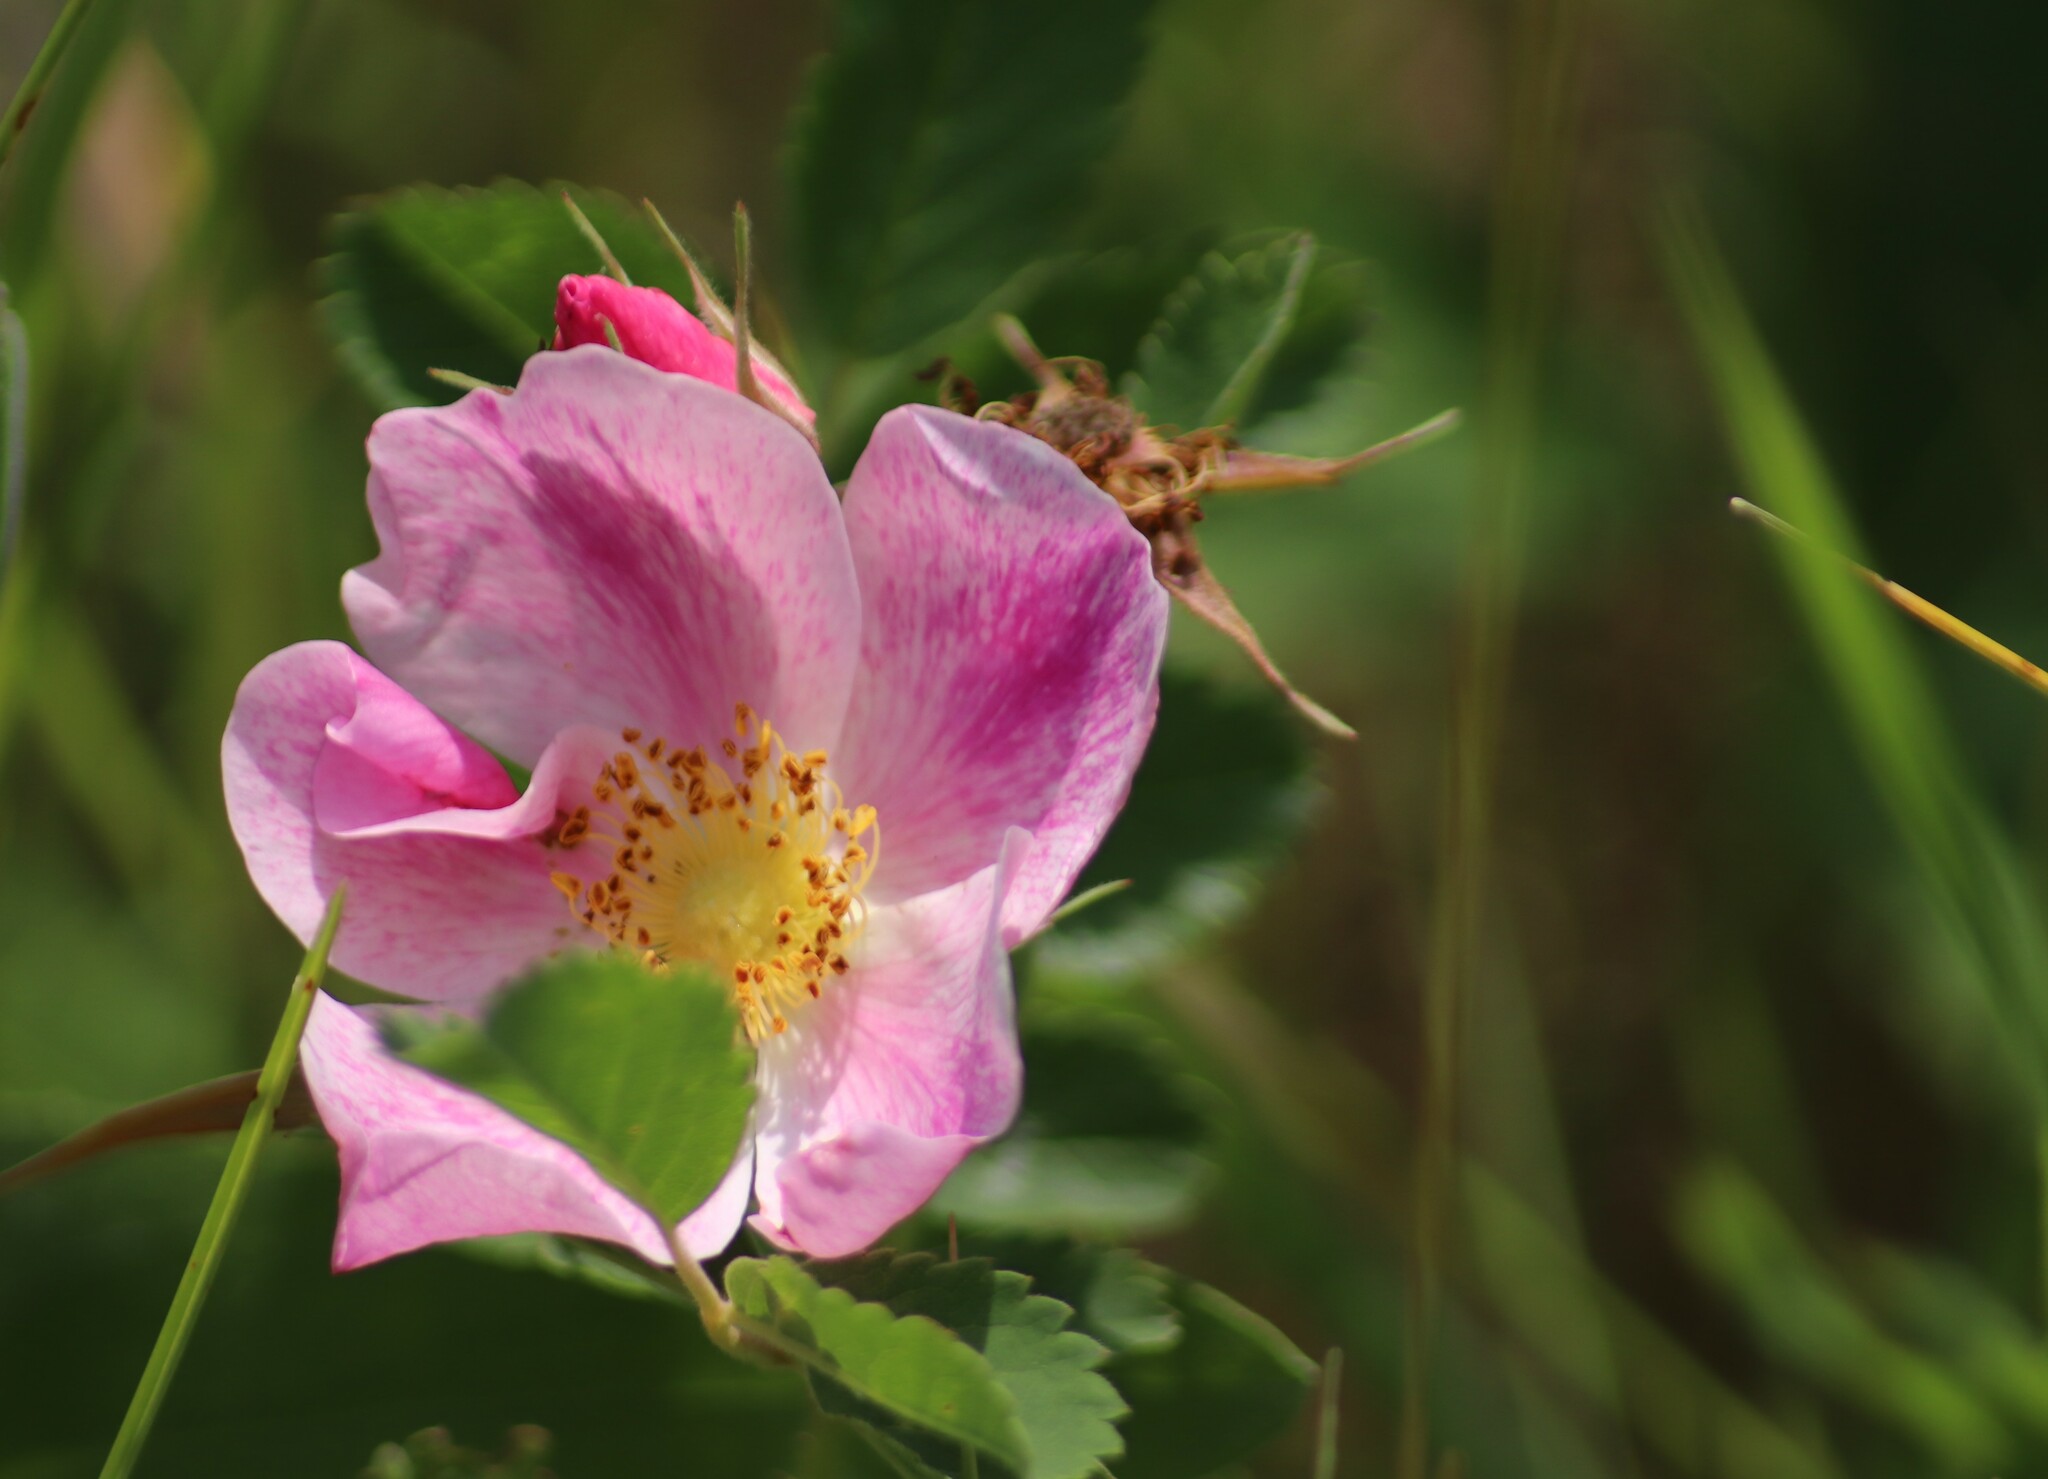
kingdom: Plantae
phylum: Tracheophyta
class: Magnoliopsida
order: Rosales
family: Rosaceae
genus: Rosa
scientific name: Rosa arkansana
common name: Prairie rose
